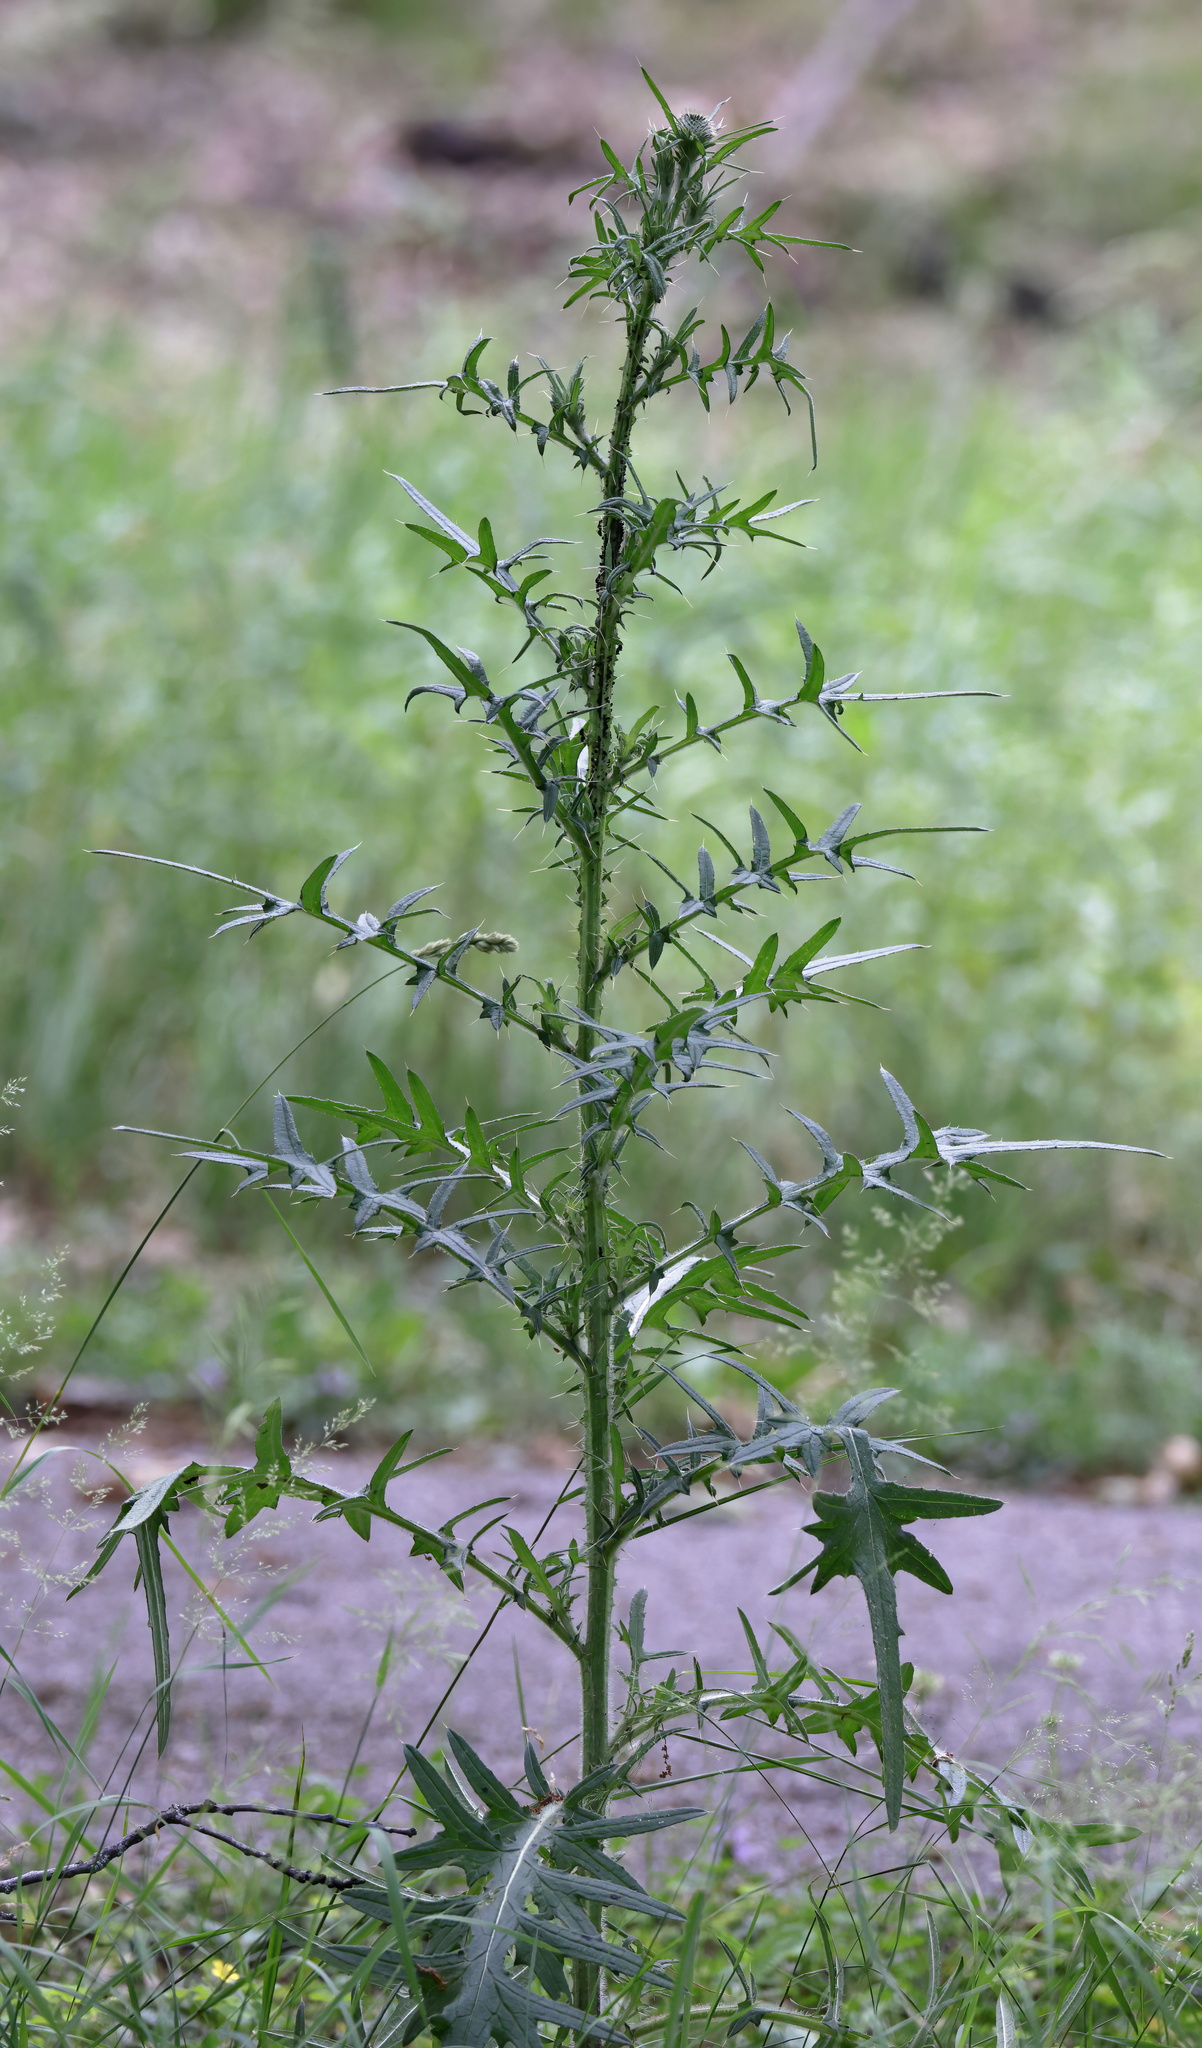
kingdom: Plantae
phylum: Tracheophyta
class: Magnoliopsida
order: Asterales
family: Asteraceae
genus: Cirsium
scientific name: Cirsium vulgare
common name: Bull thistle
